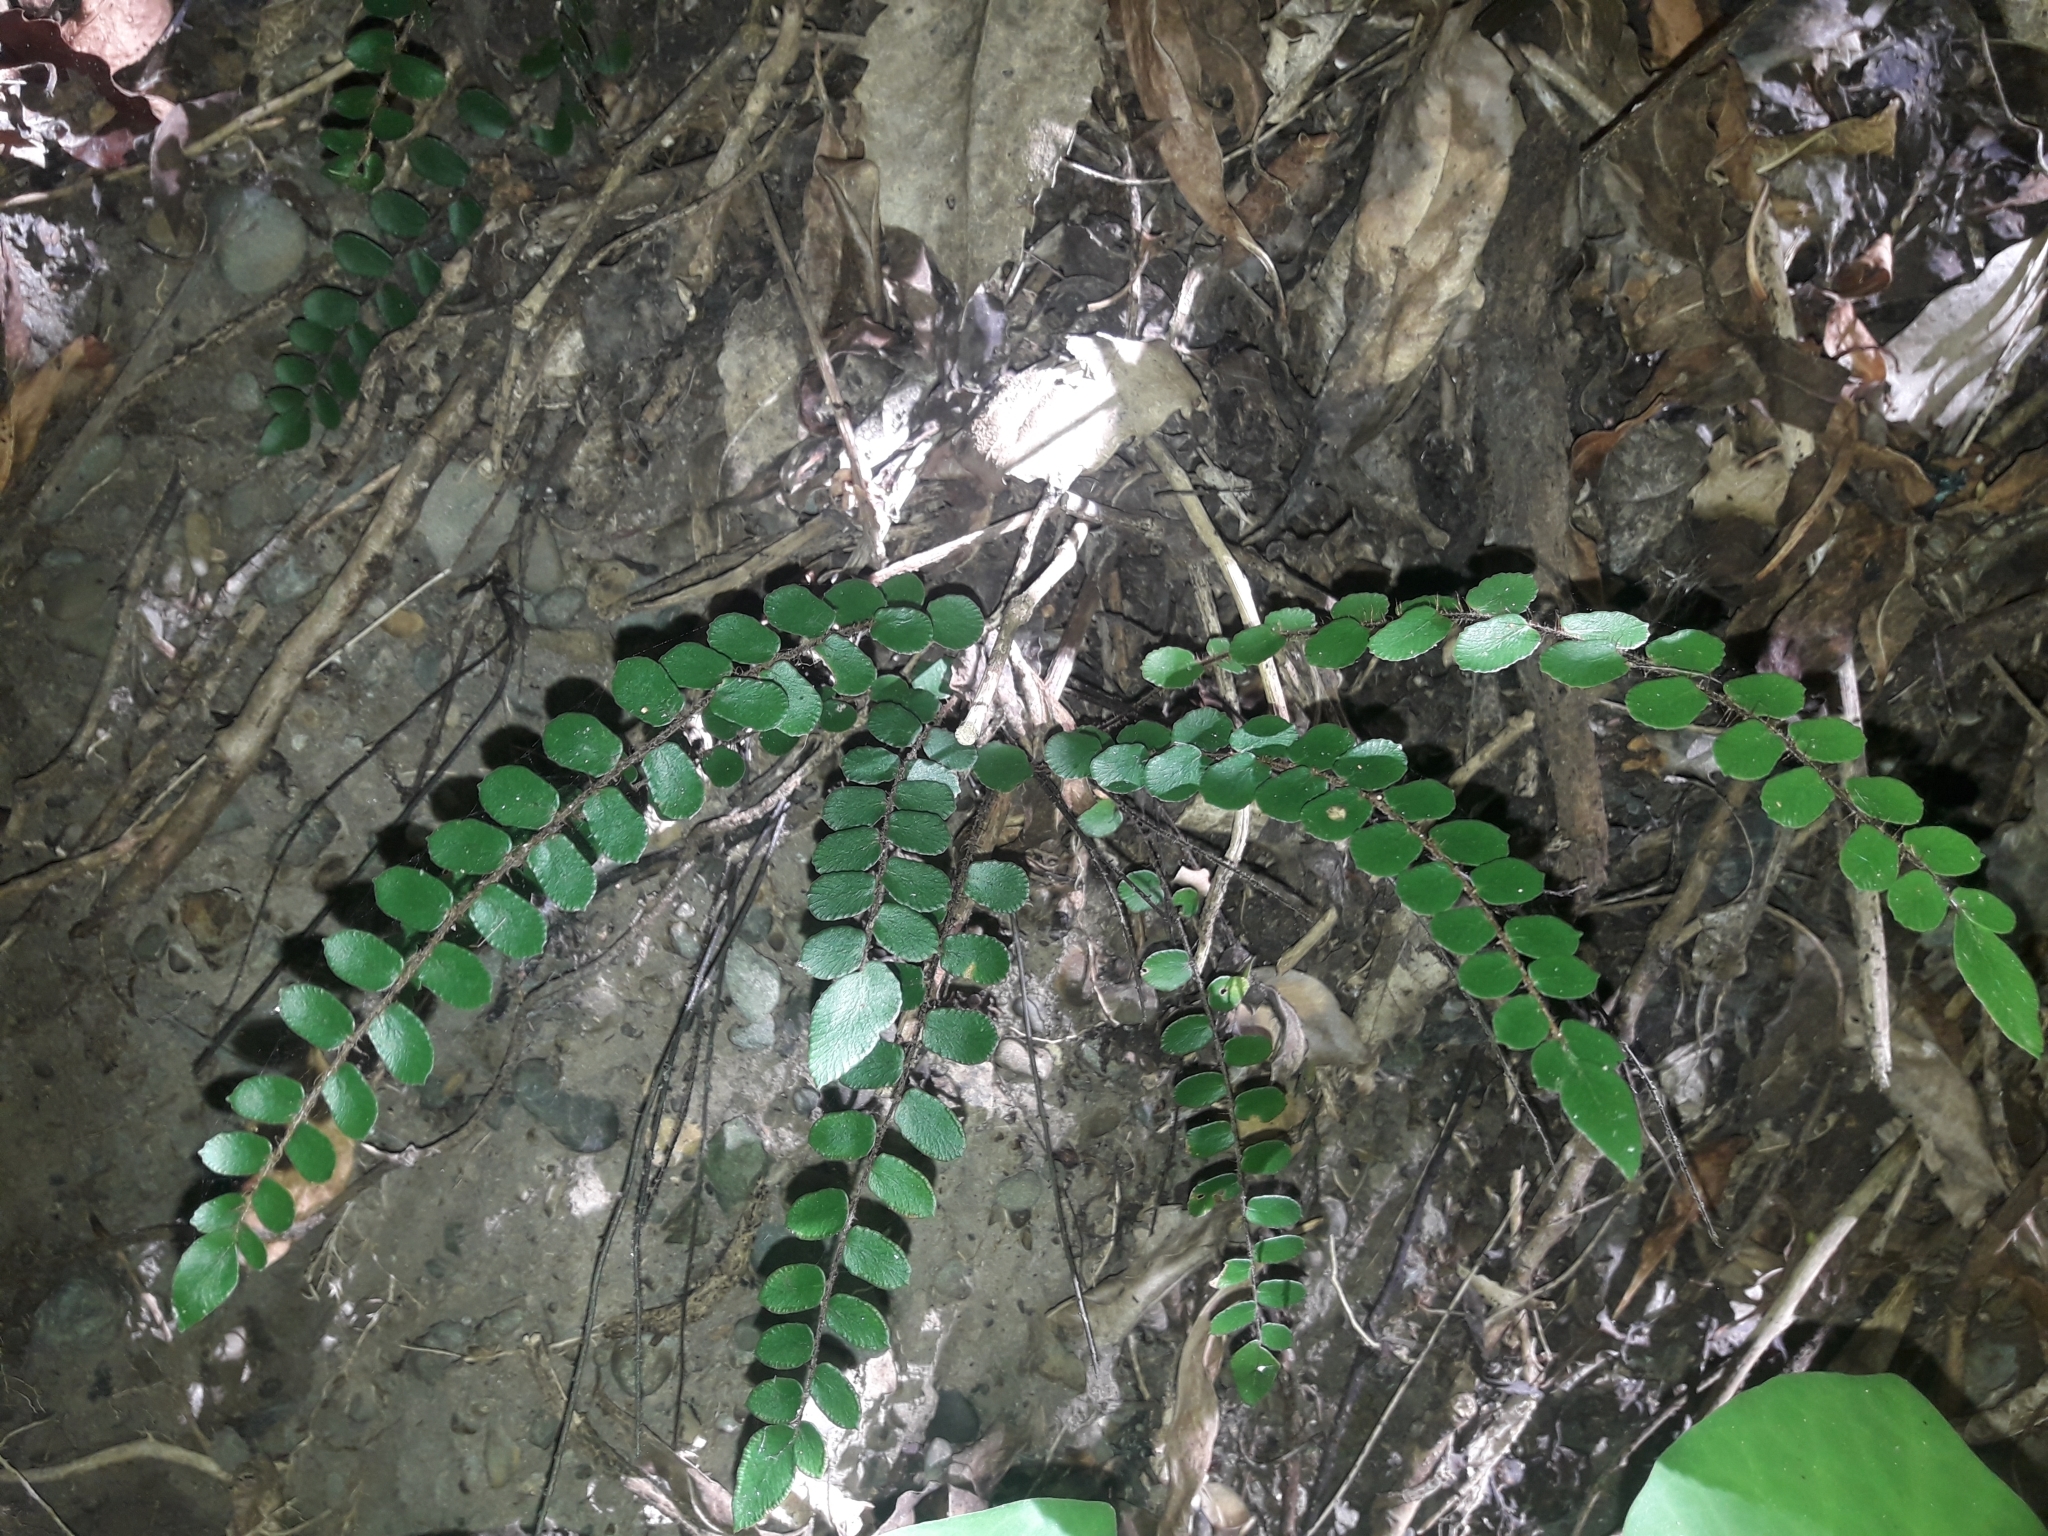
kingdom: Plantae
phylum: Tracheophyta
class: Polypodiopsida
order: Polypodiales
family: Pteridaceae
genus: Pellaea
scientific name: Pellaea rotundifolia
